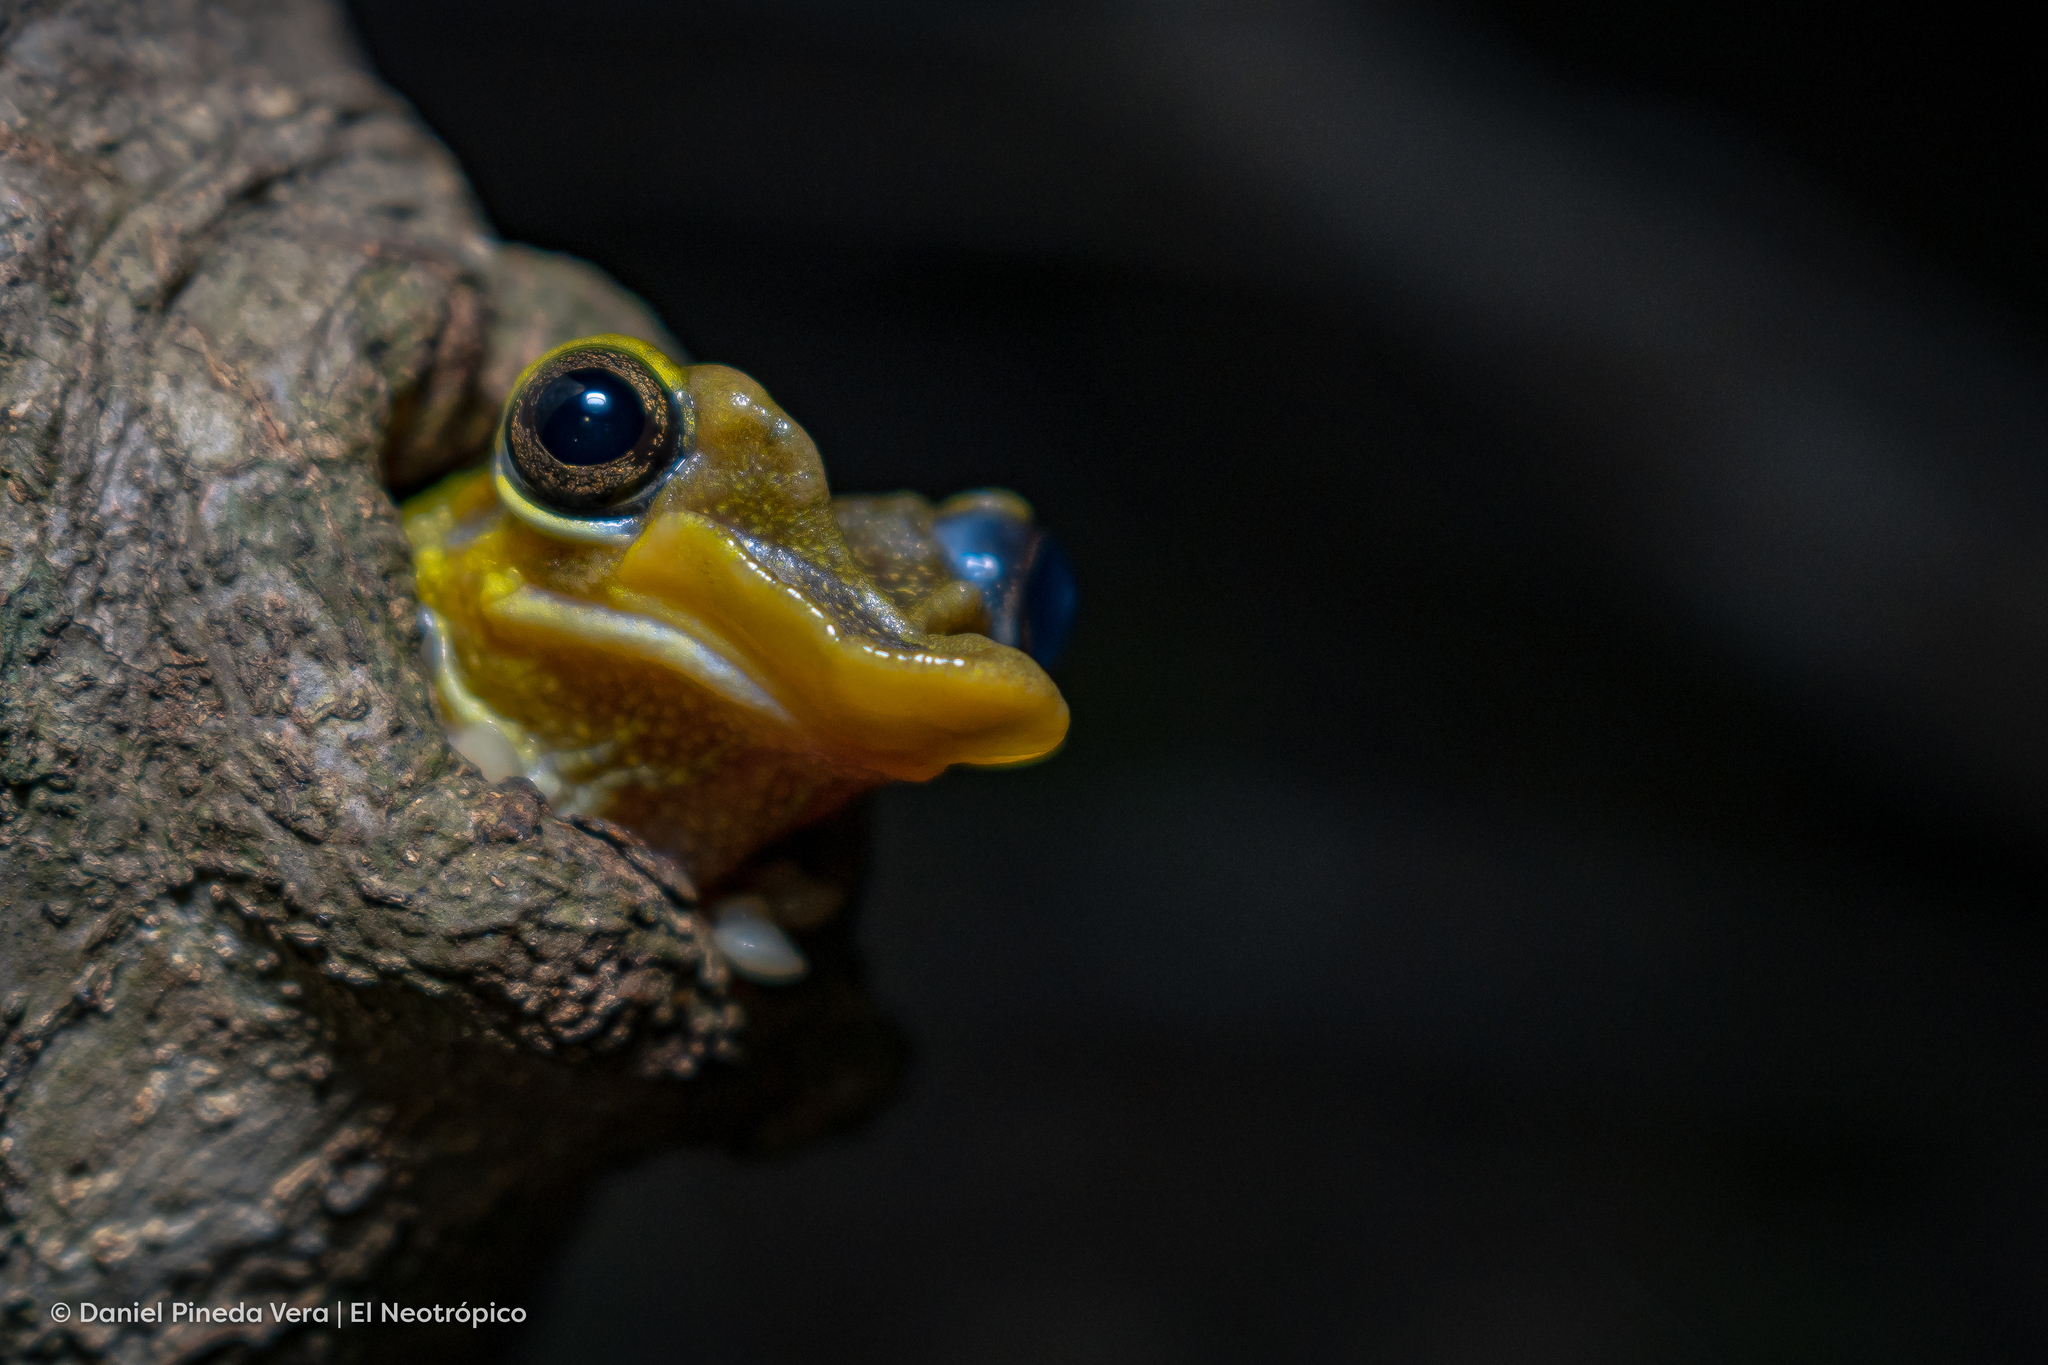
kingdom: Animalia
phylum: Chordata
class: Amphibia
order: Anura
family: Hylidae
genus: Triprion
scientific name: Triprion petasatus
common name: Yucatecan casque-headed treefrog
